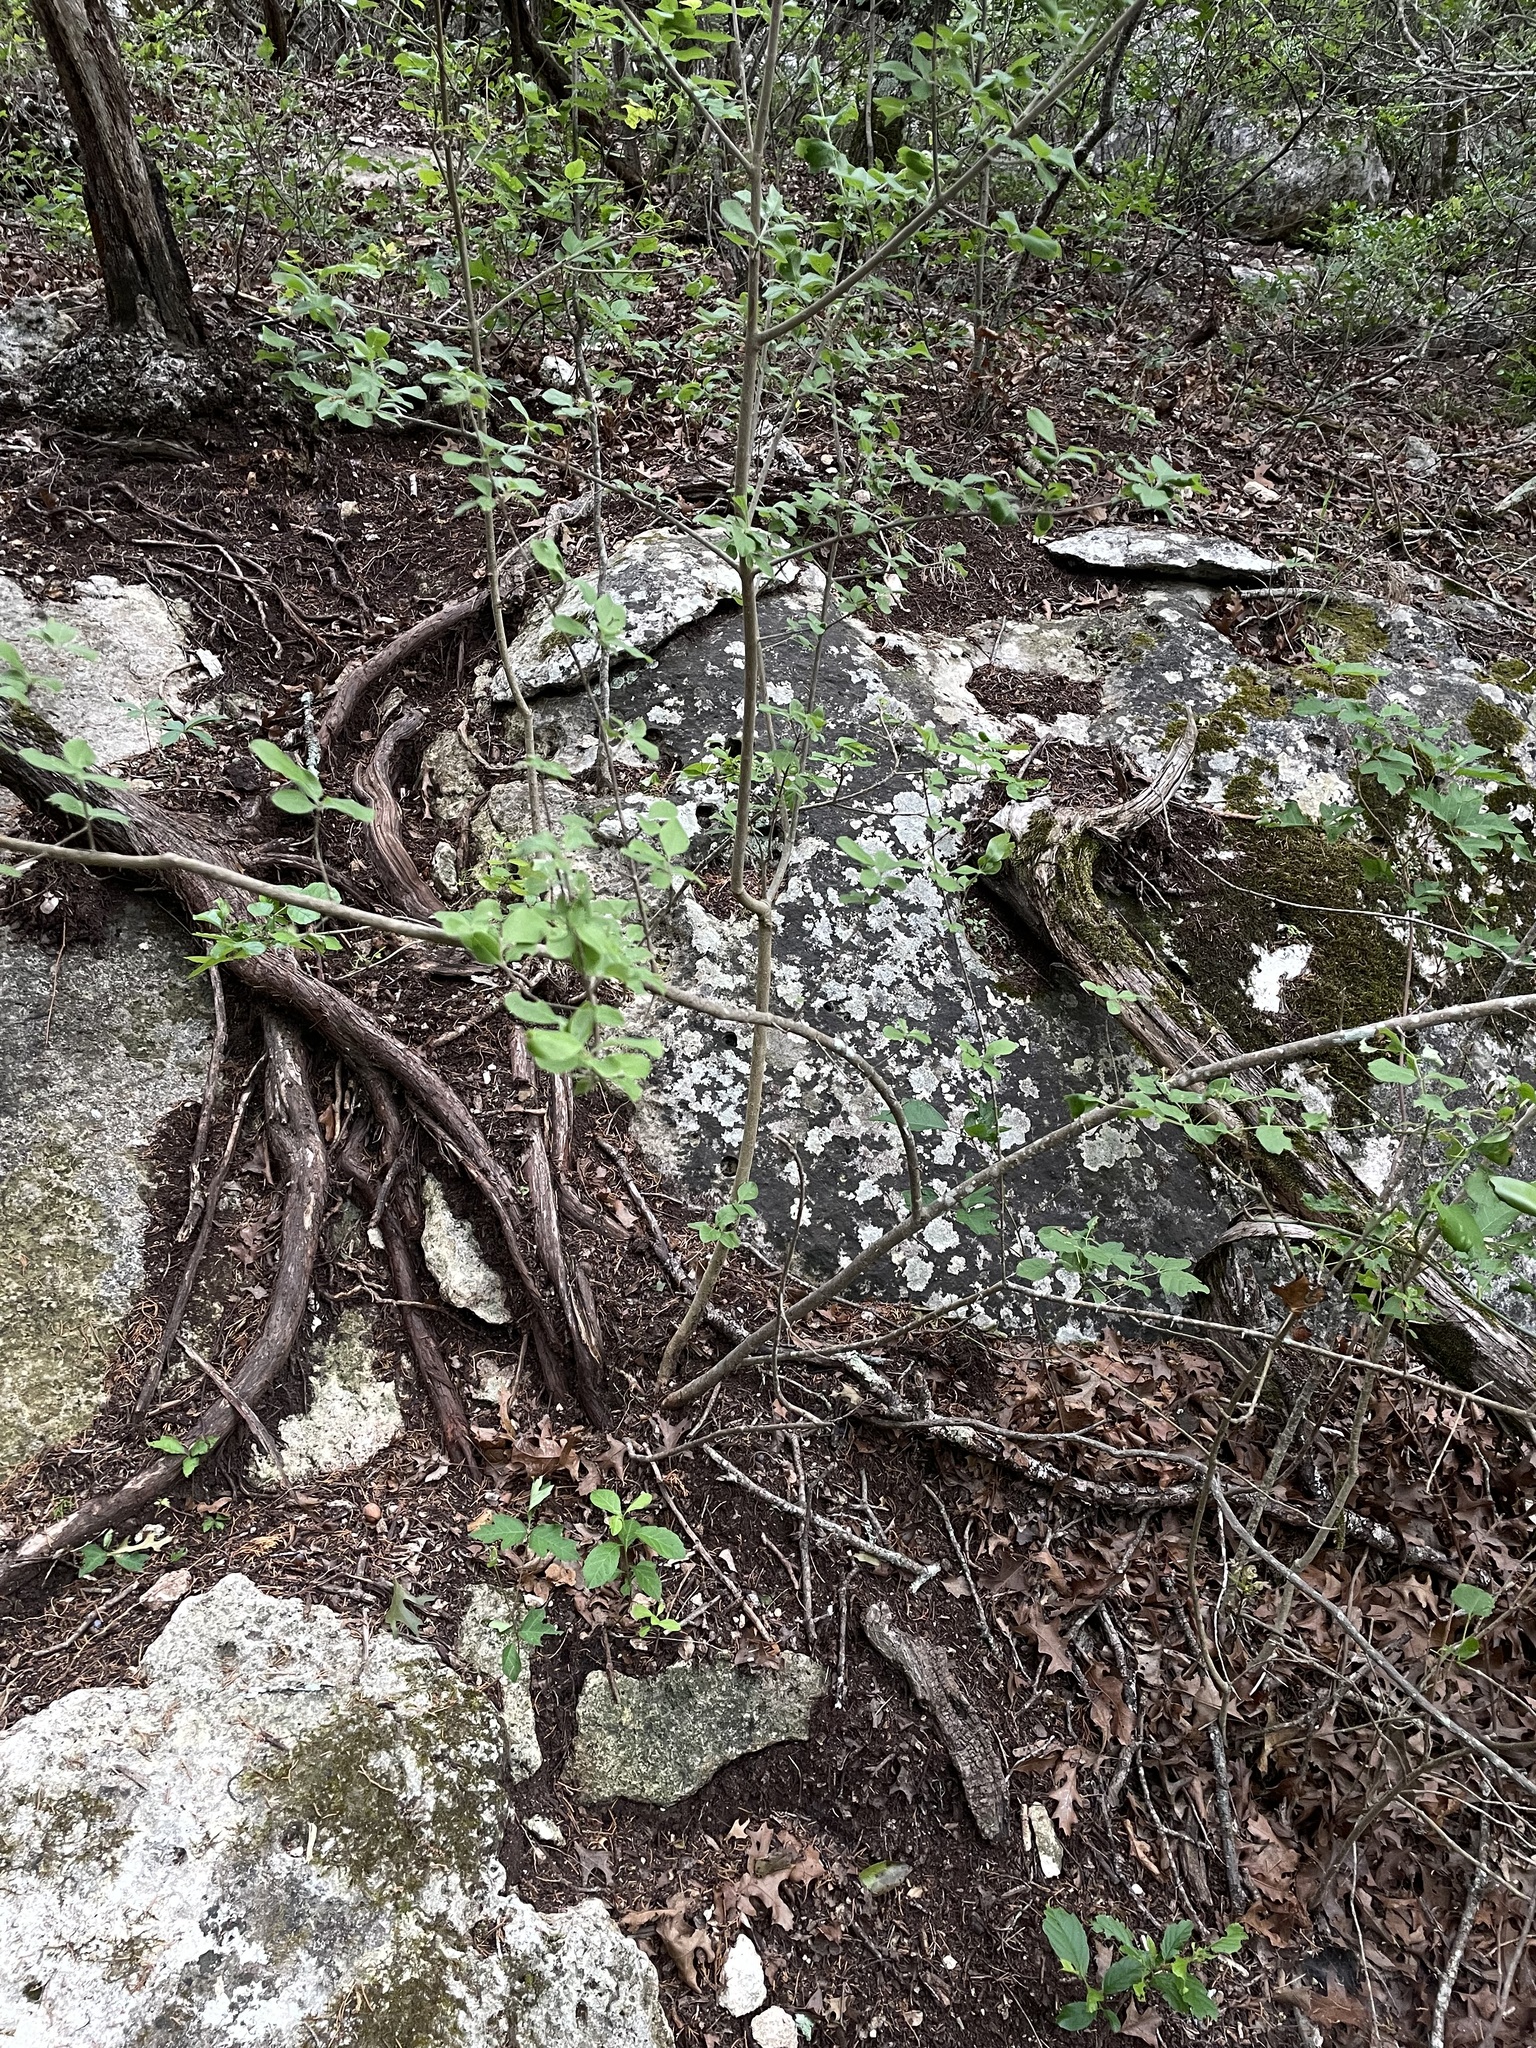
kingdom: Plantae
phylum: Tracheophyta
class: Magnoliopsida
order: Lamiales
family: Oleaceae
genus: Forestiera
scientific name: Forestiera pubescens
